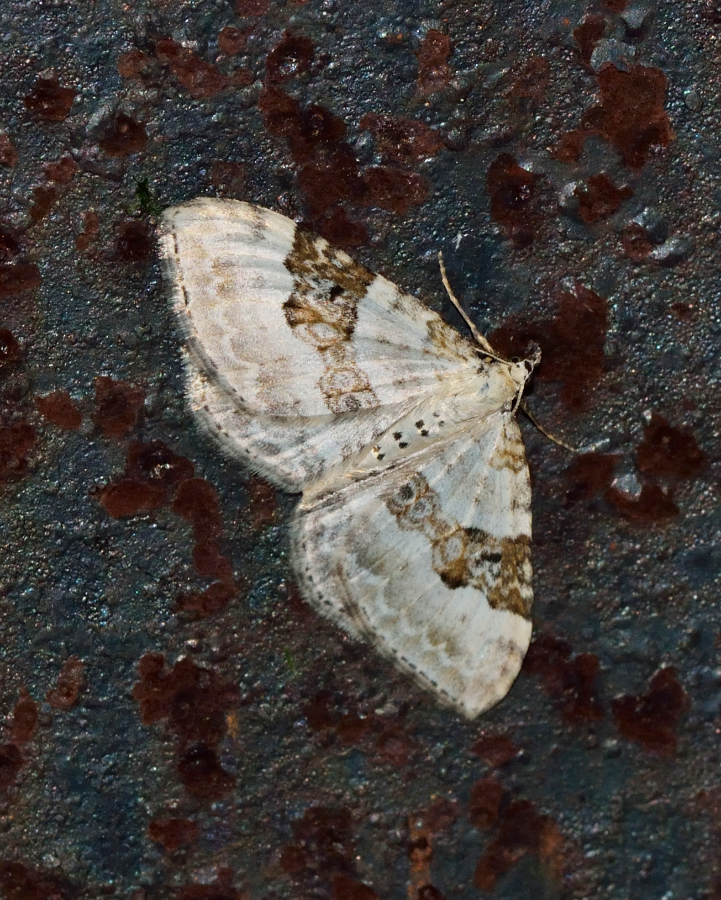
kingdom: Animalia
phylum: Arthropoda
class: Insecta
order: Lepidoptera
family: Geometridae
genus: Xanthorhoe
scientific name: Xanthorhoe montanata
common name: Silver-ground carpet
